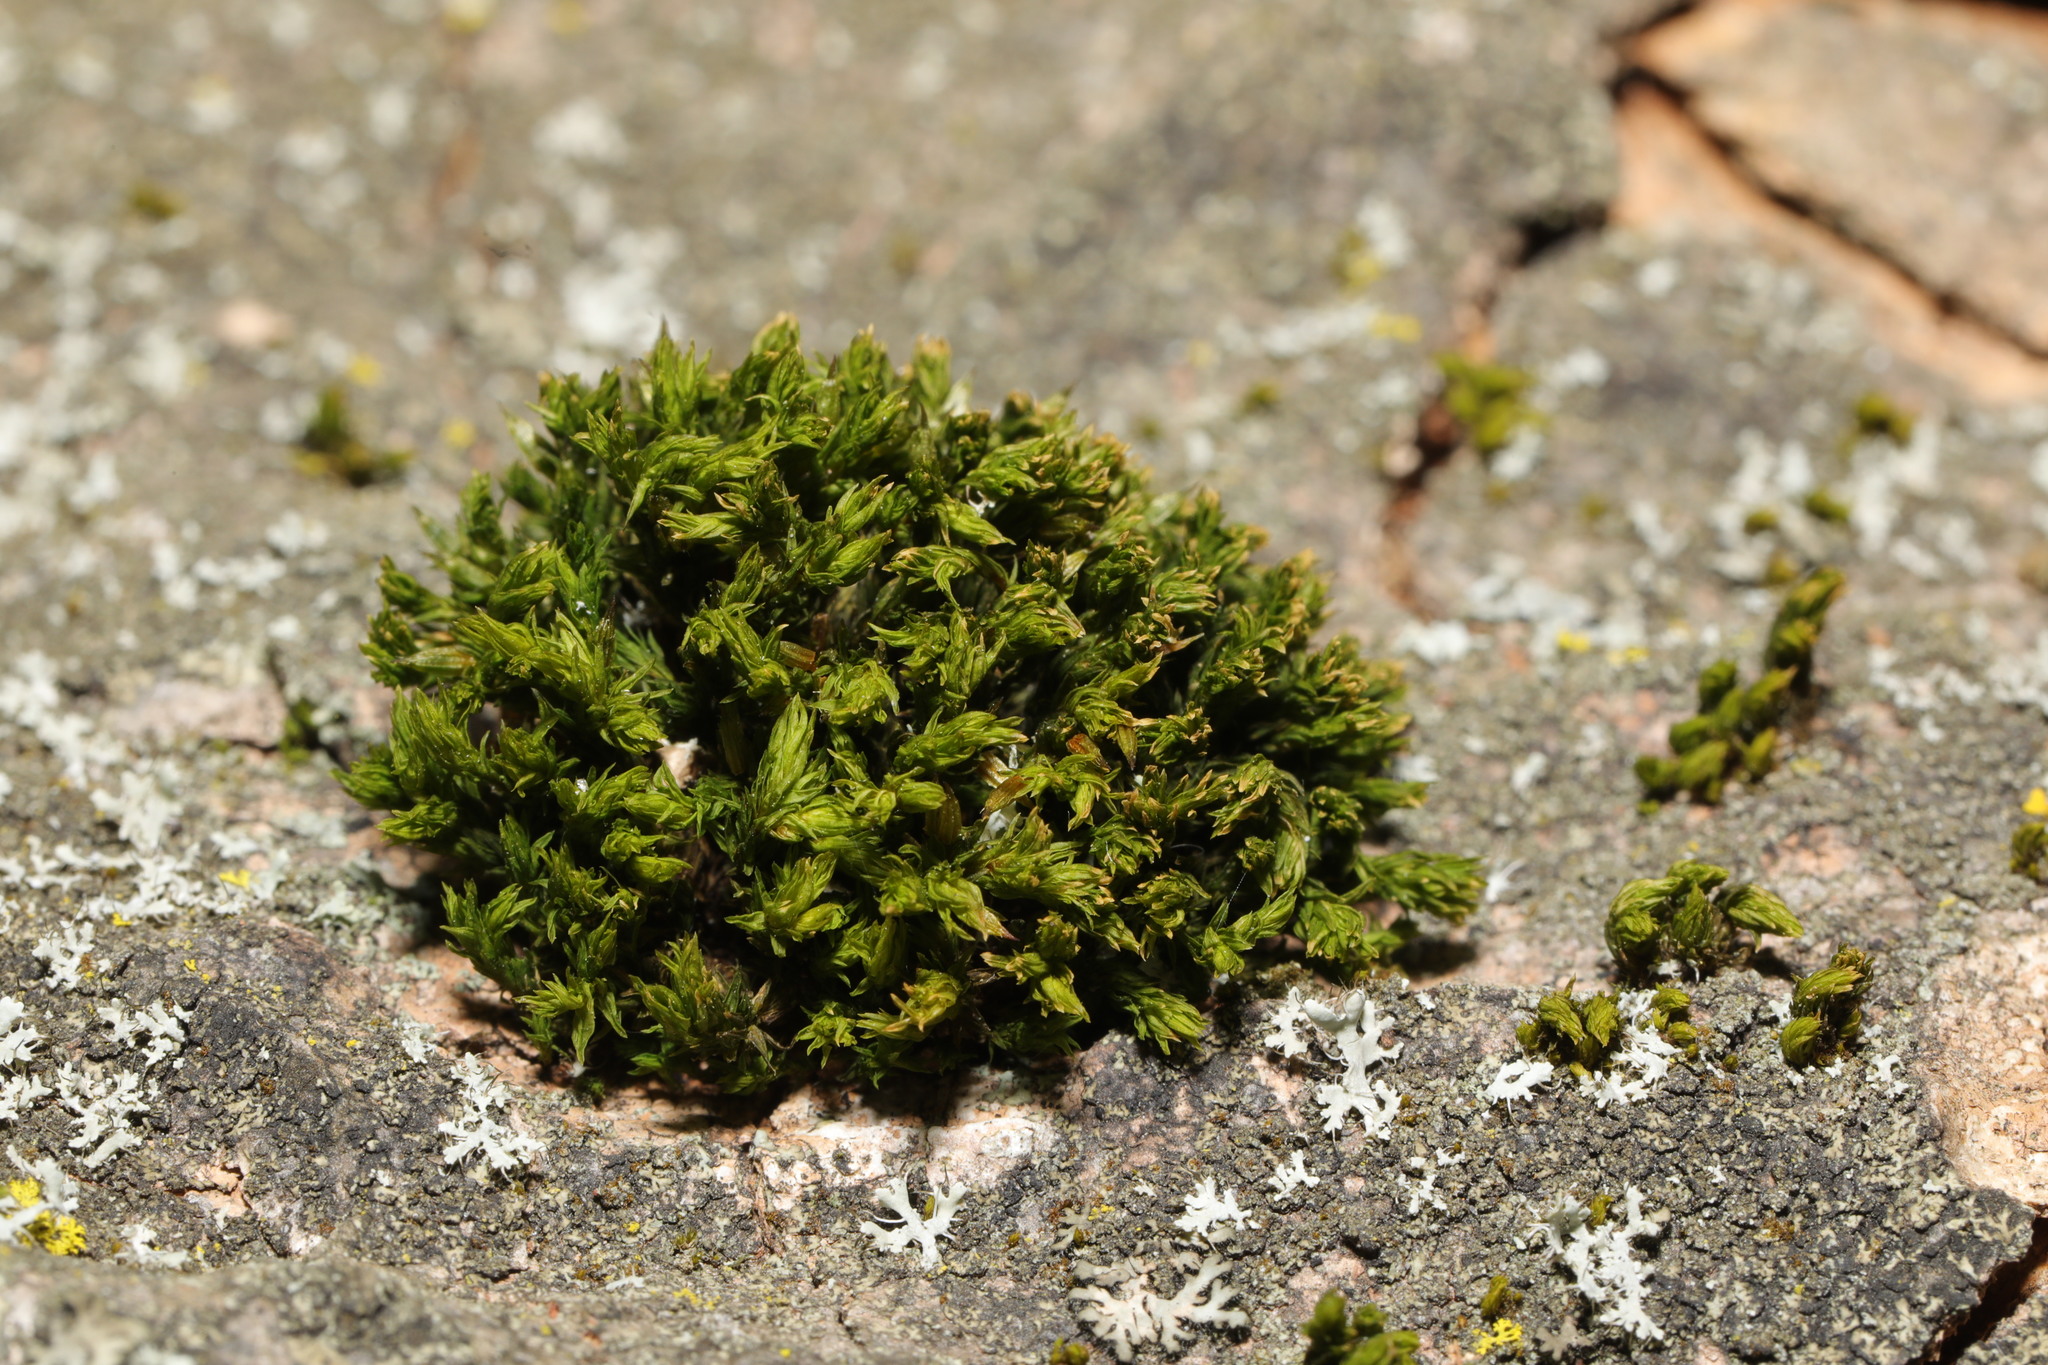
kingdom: Plantae
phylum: Bryophyta
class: Bryopsida
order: Orthotrichales
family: Orthotrichaceae
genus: Lewinskya
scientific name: Lewinskya affinis
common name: Wood bristle-moss
